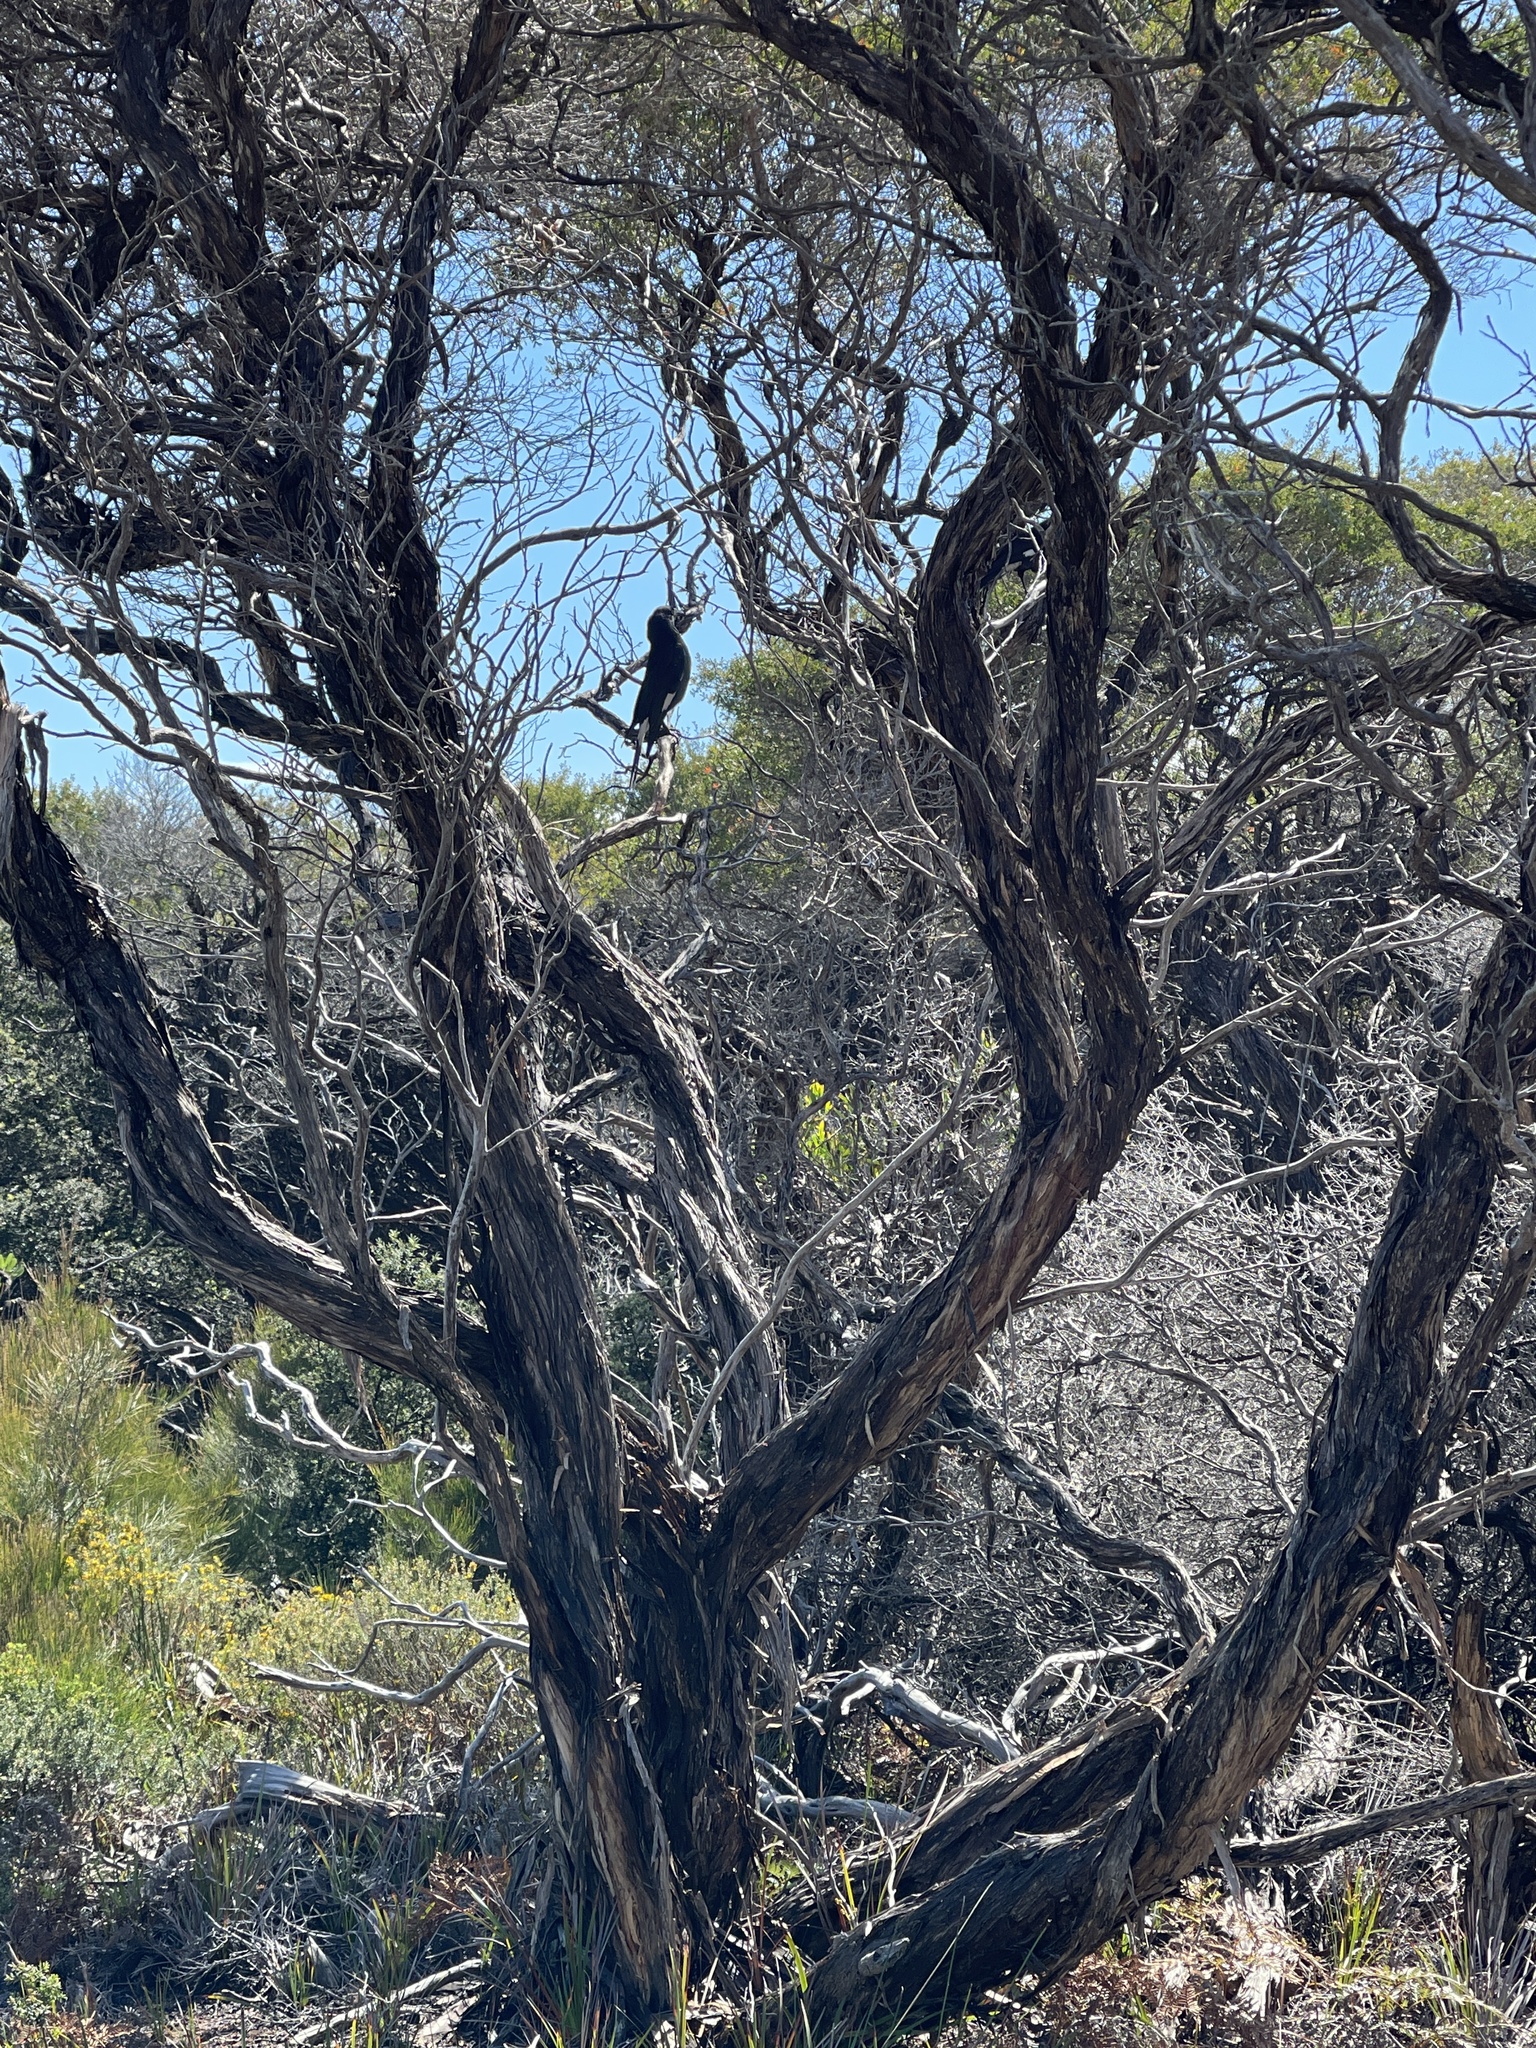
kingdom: Animalia
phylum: Chordata
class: Aves
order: Passeriformes
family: Cracticidae
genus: Strepera
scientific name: Strepera graculina
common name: Pied currawong
